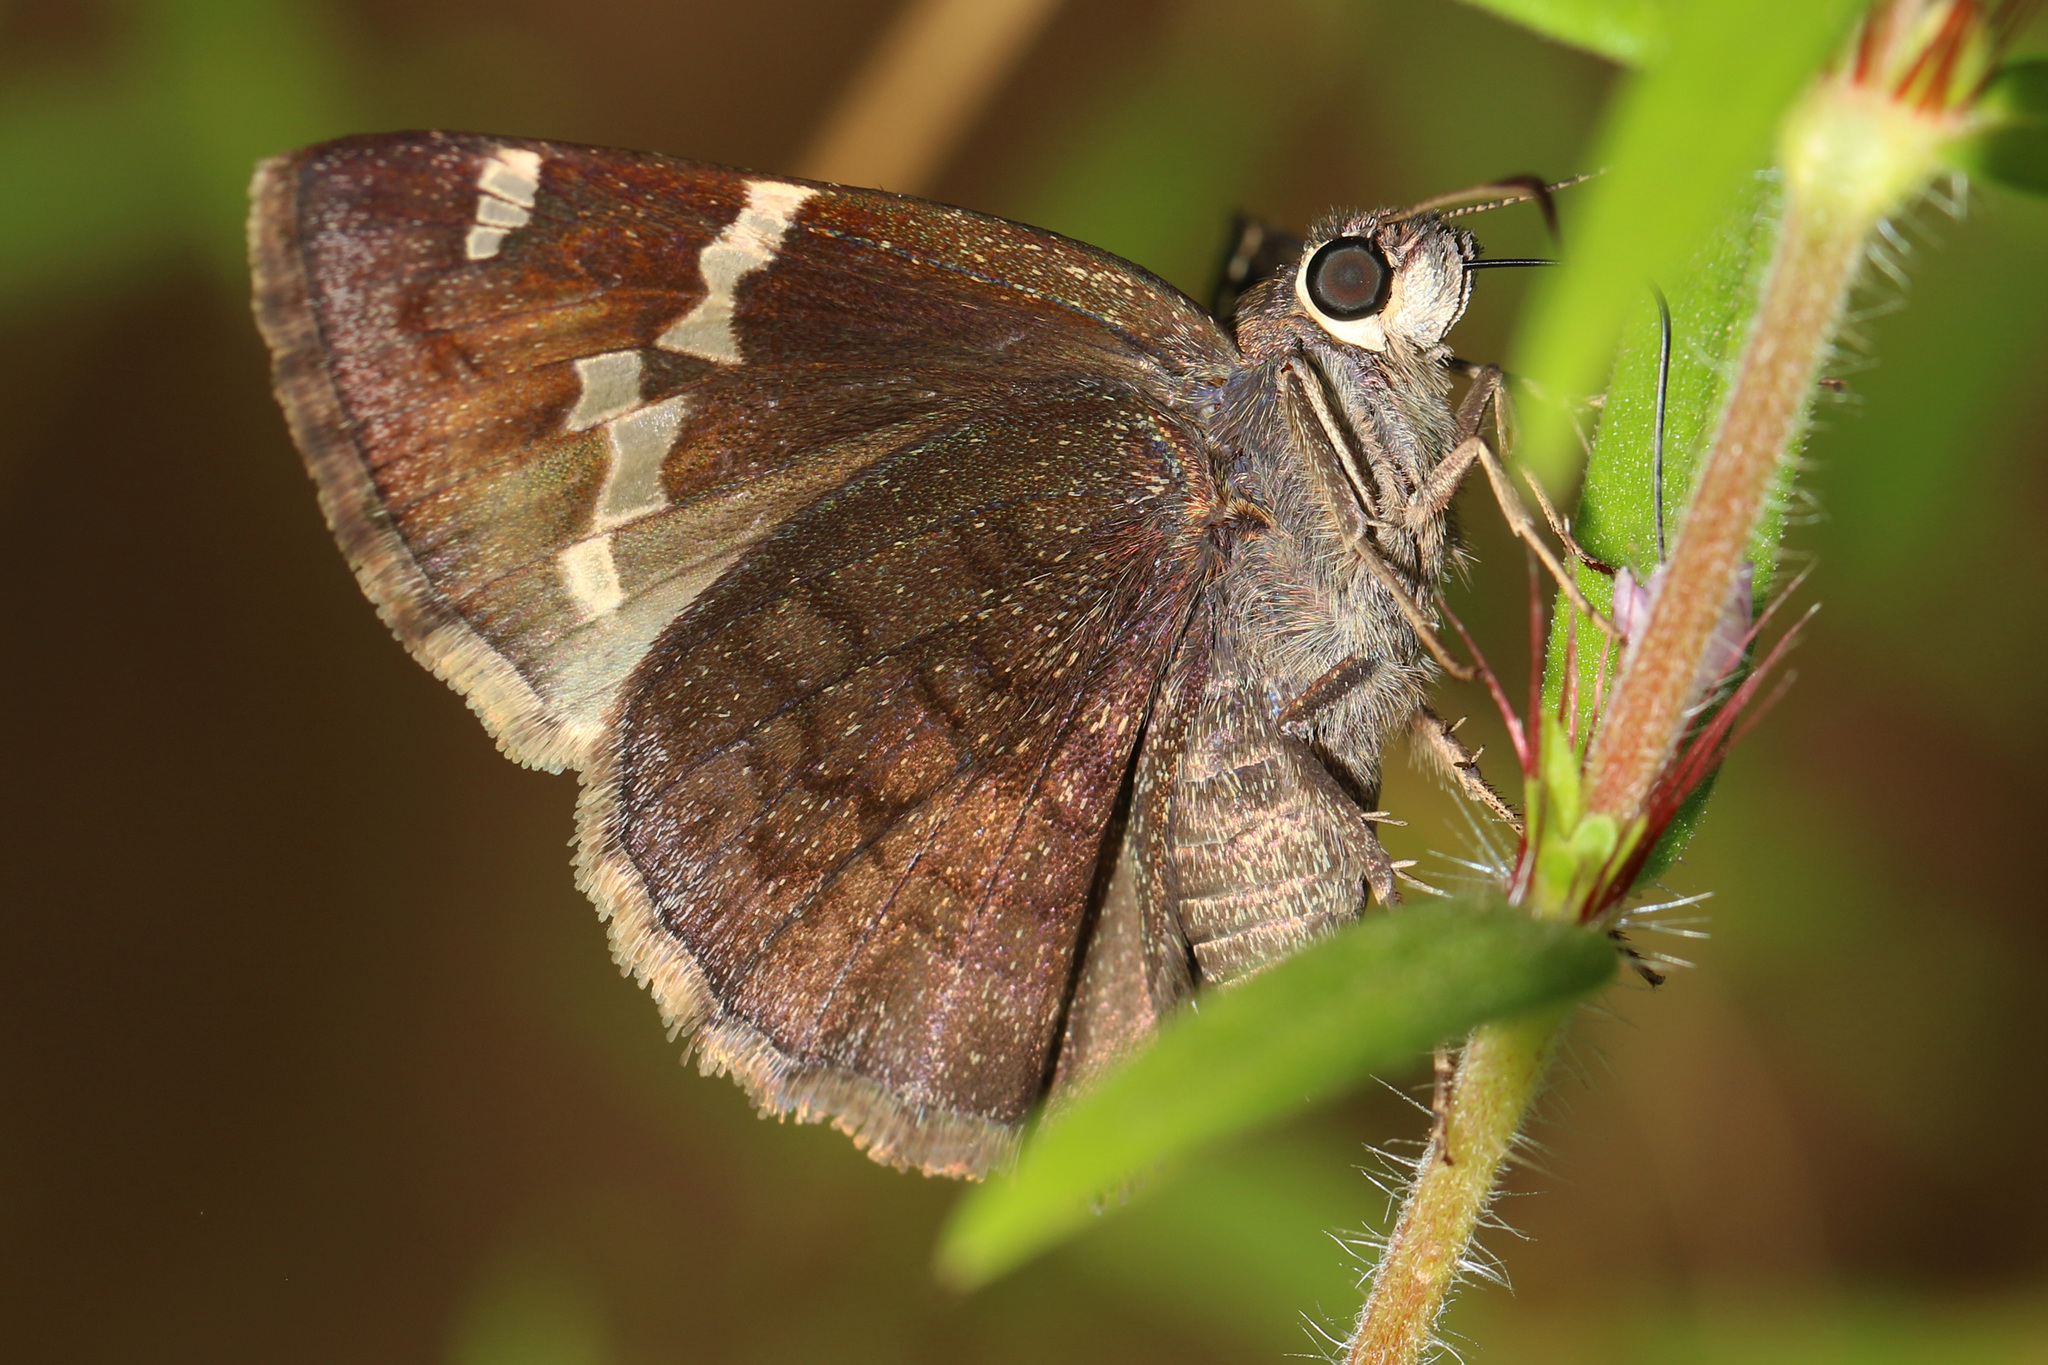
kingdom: Animalia
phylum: Arthropoda
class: Insecta
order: Lepidoptera
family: Hesperiidae
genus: Thorybes
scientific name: Thorybes daunus
